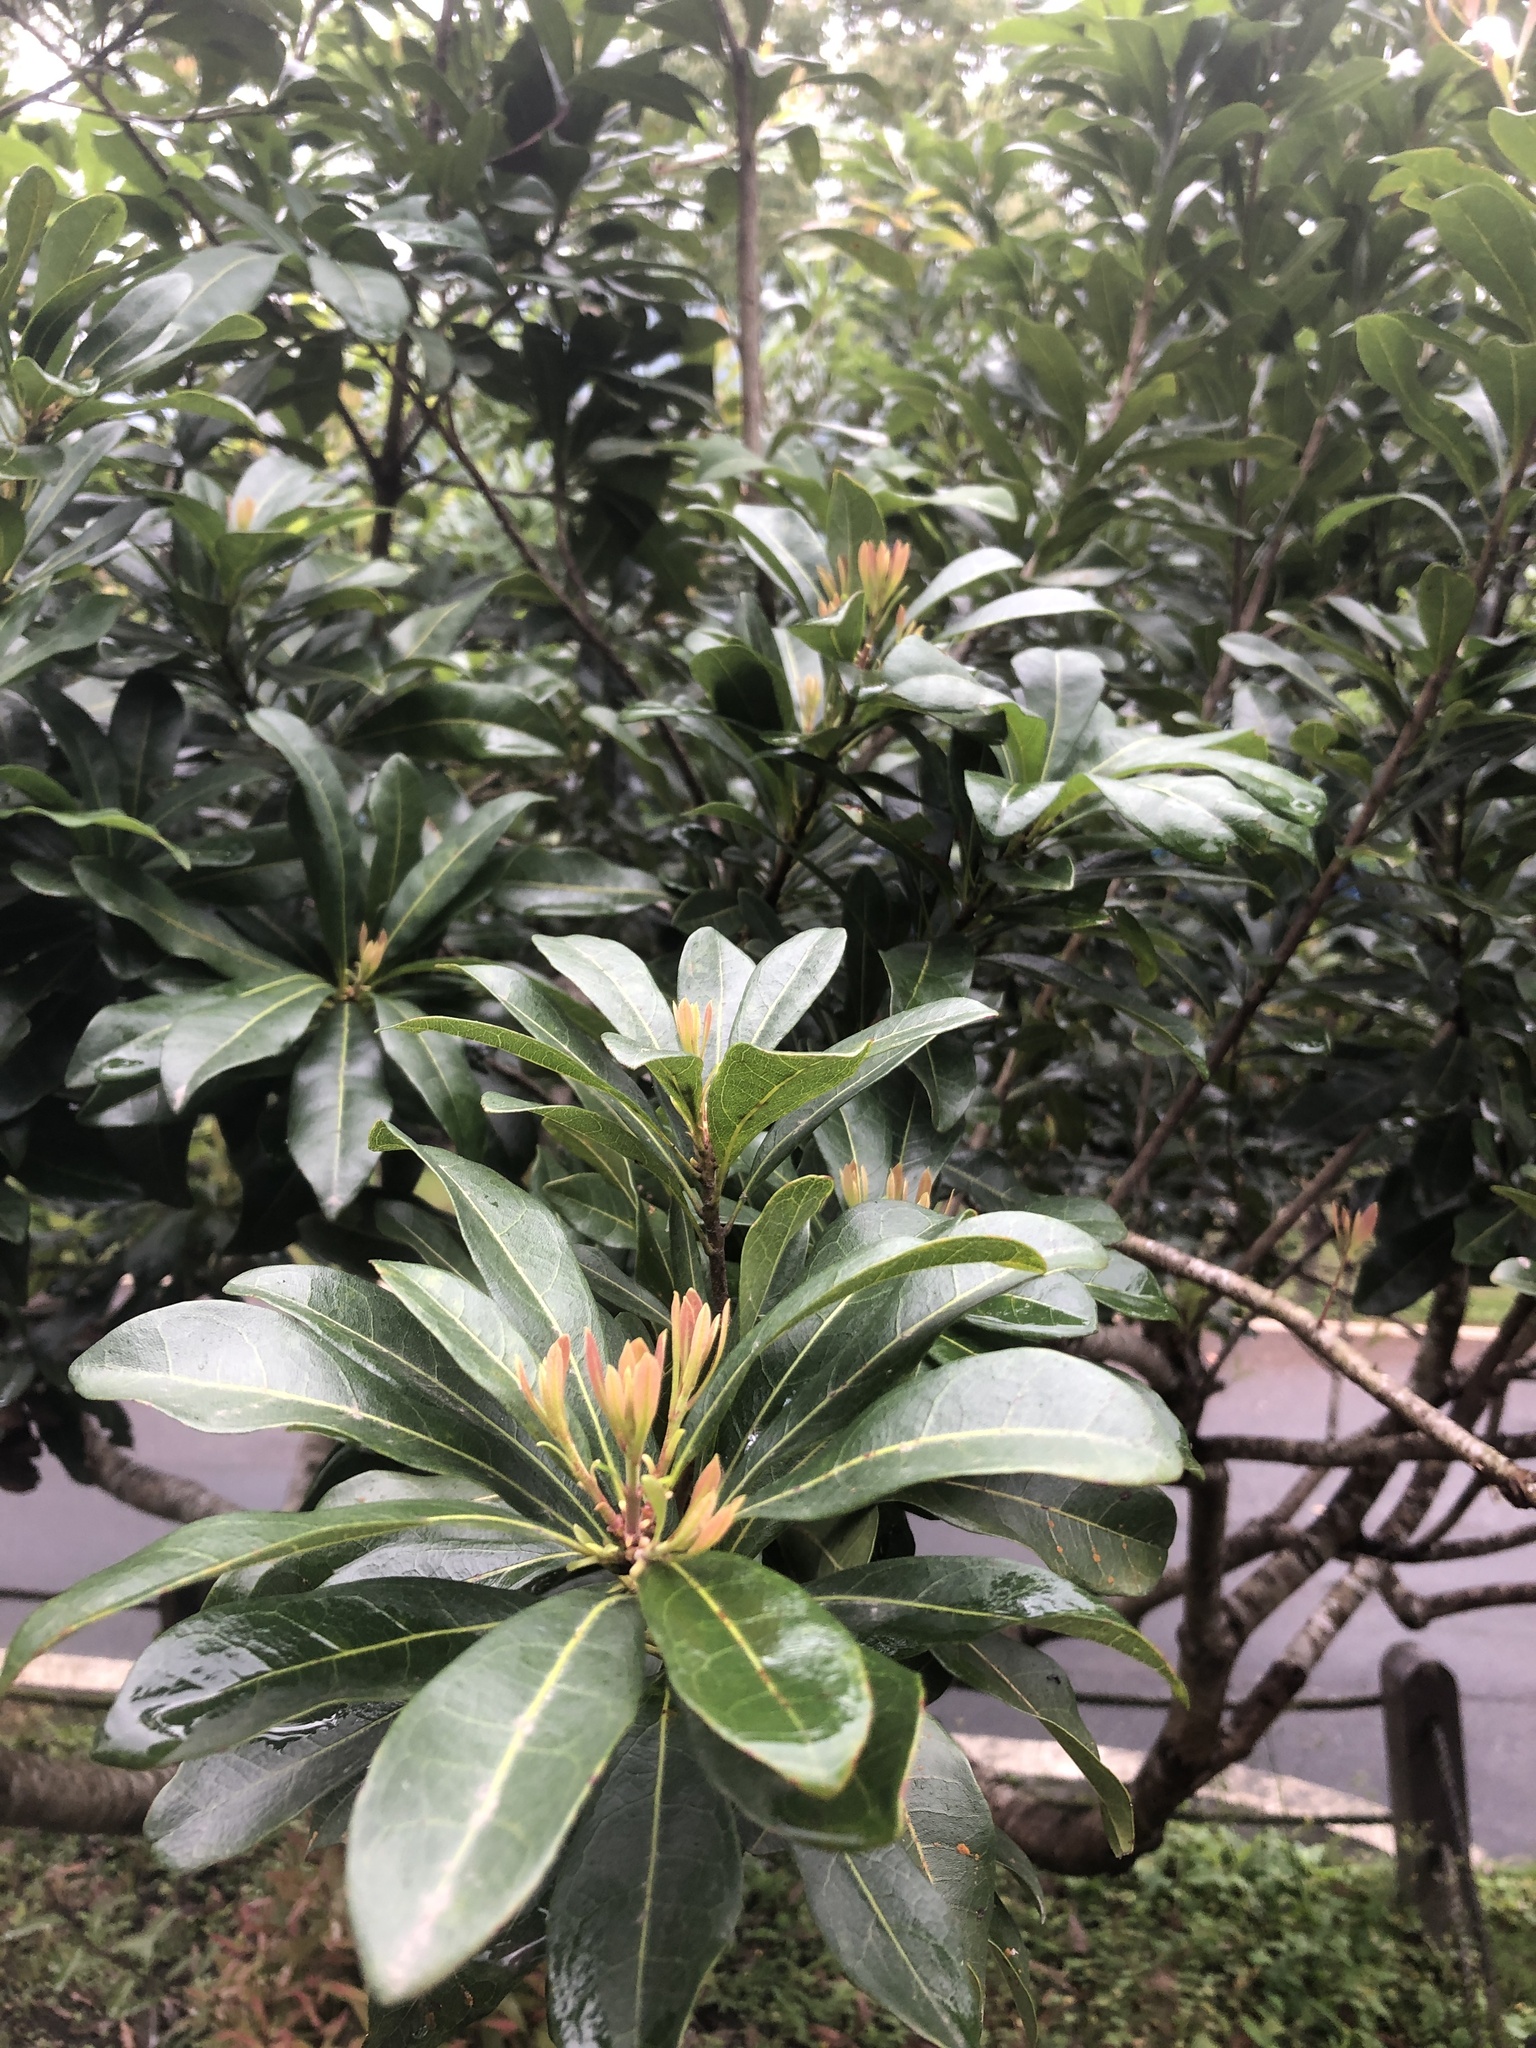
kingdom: Plantae
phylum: Tracheophyta
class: Magnoliopsida
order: Fagales
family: Myricaceae
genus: Morella
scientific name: Morella rubra
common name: Red bayberry
